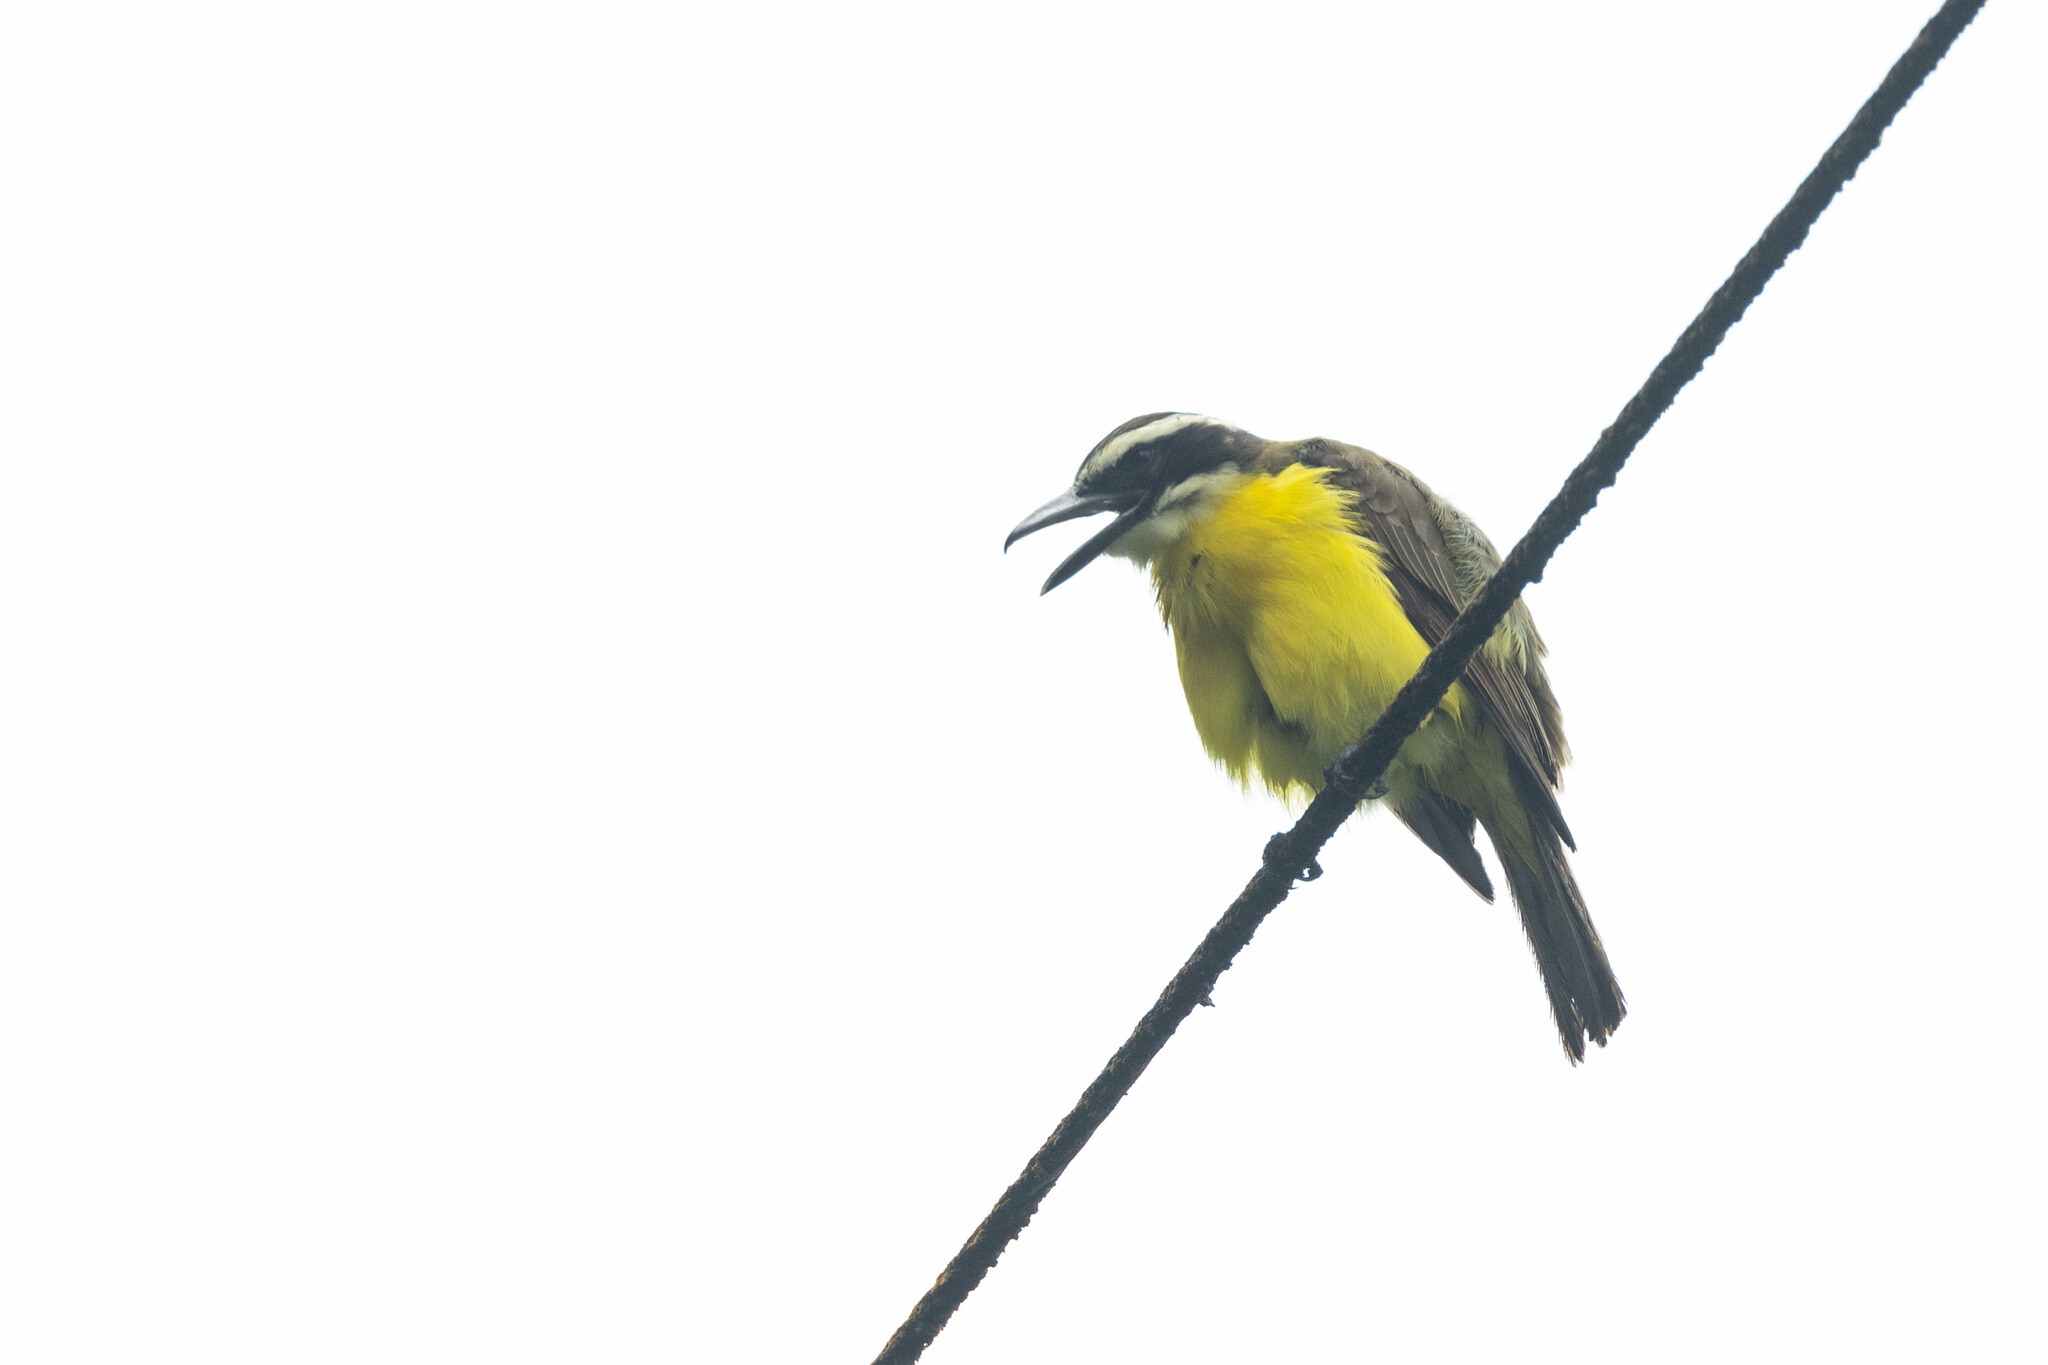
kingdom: Animalia
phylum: Chordata
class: Aves
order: Passeriformes
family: Tyrannidae
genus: Megarynchus
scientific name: Megarynchus pitangua
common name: Boat-billed flycatcher
